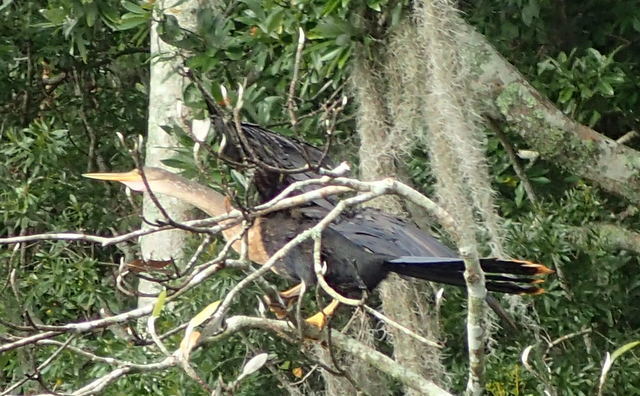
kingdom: Animalia
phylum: Chordata
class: Aves
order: Suliformes
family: Anhingidae
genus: Anhinga
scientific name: Anhinga anhinga
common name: Anhinga
